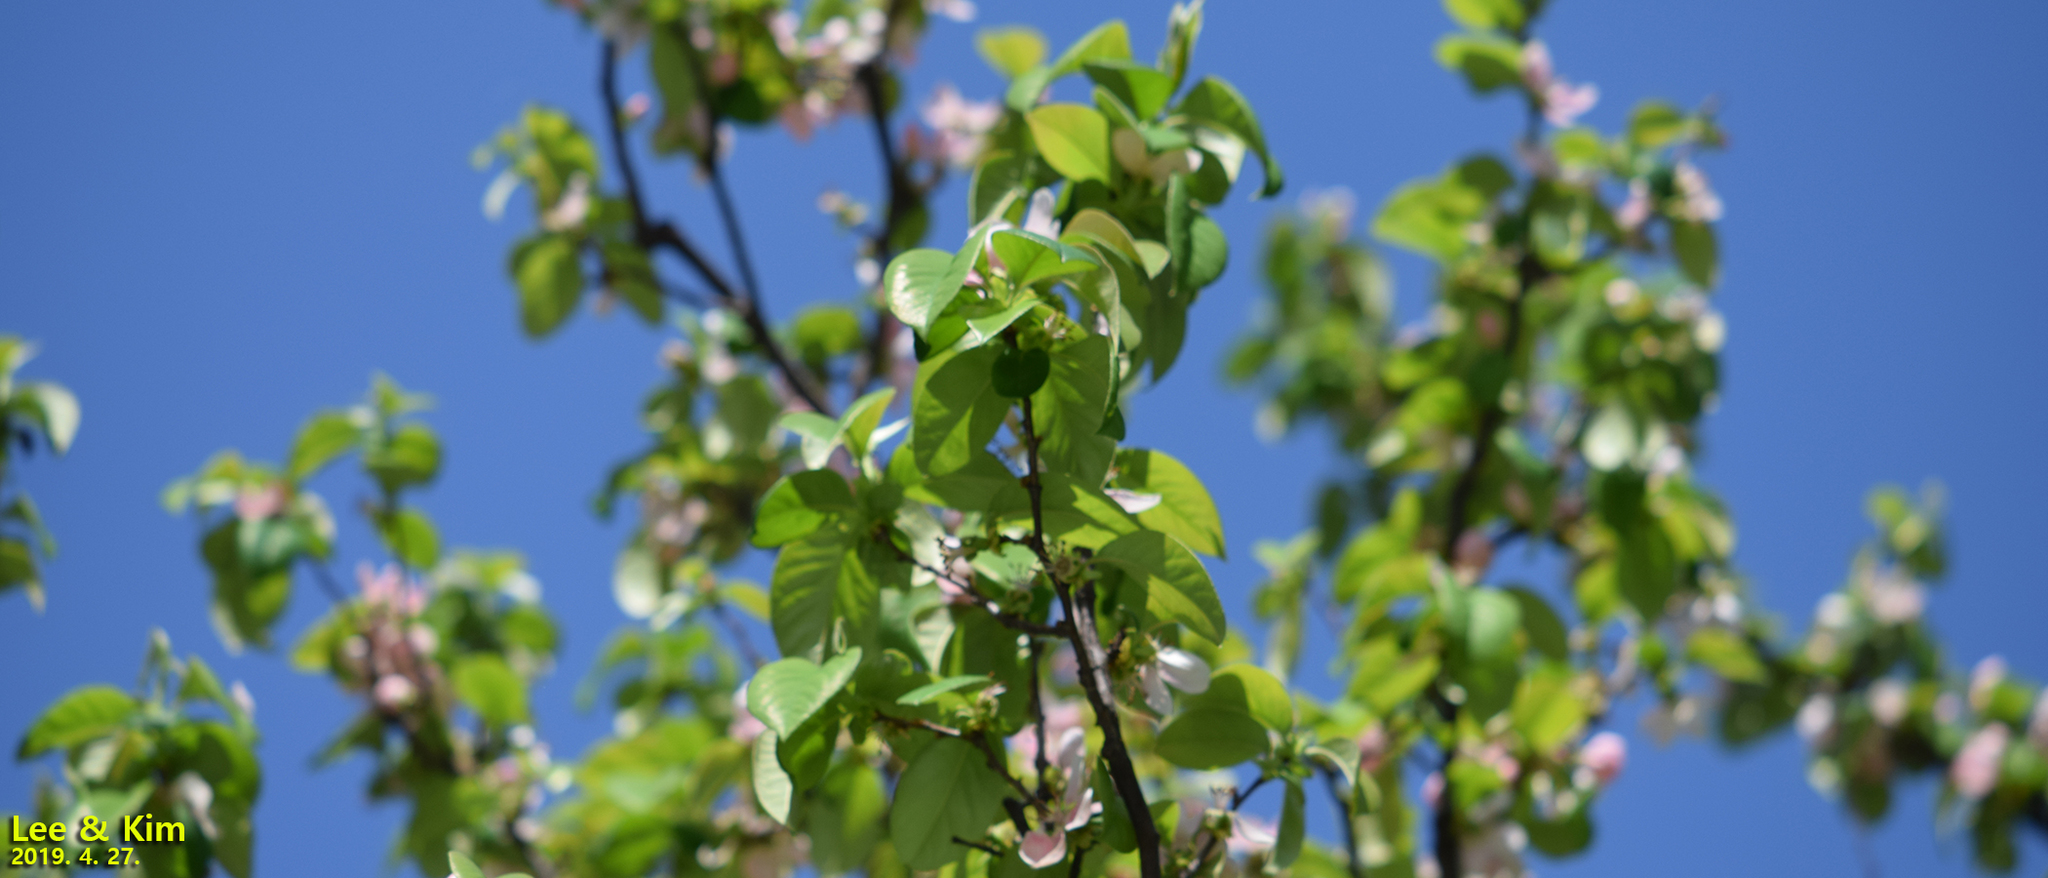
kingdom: Plantae
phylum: Tracheophyta
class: Magnoliopsida
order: Rosales
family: Rosaceae
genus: Pseudocydonia
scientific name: Pseudocydonia sinensis
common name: Chinese-quince
